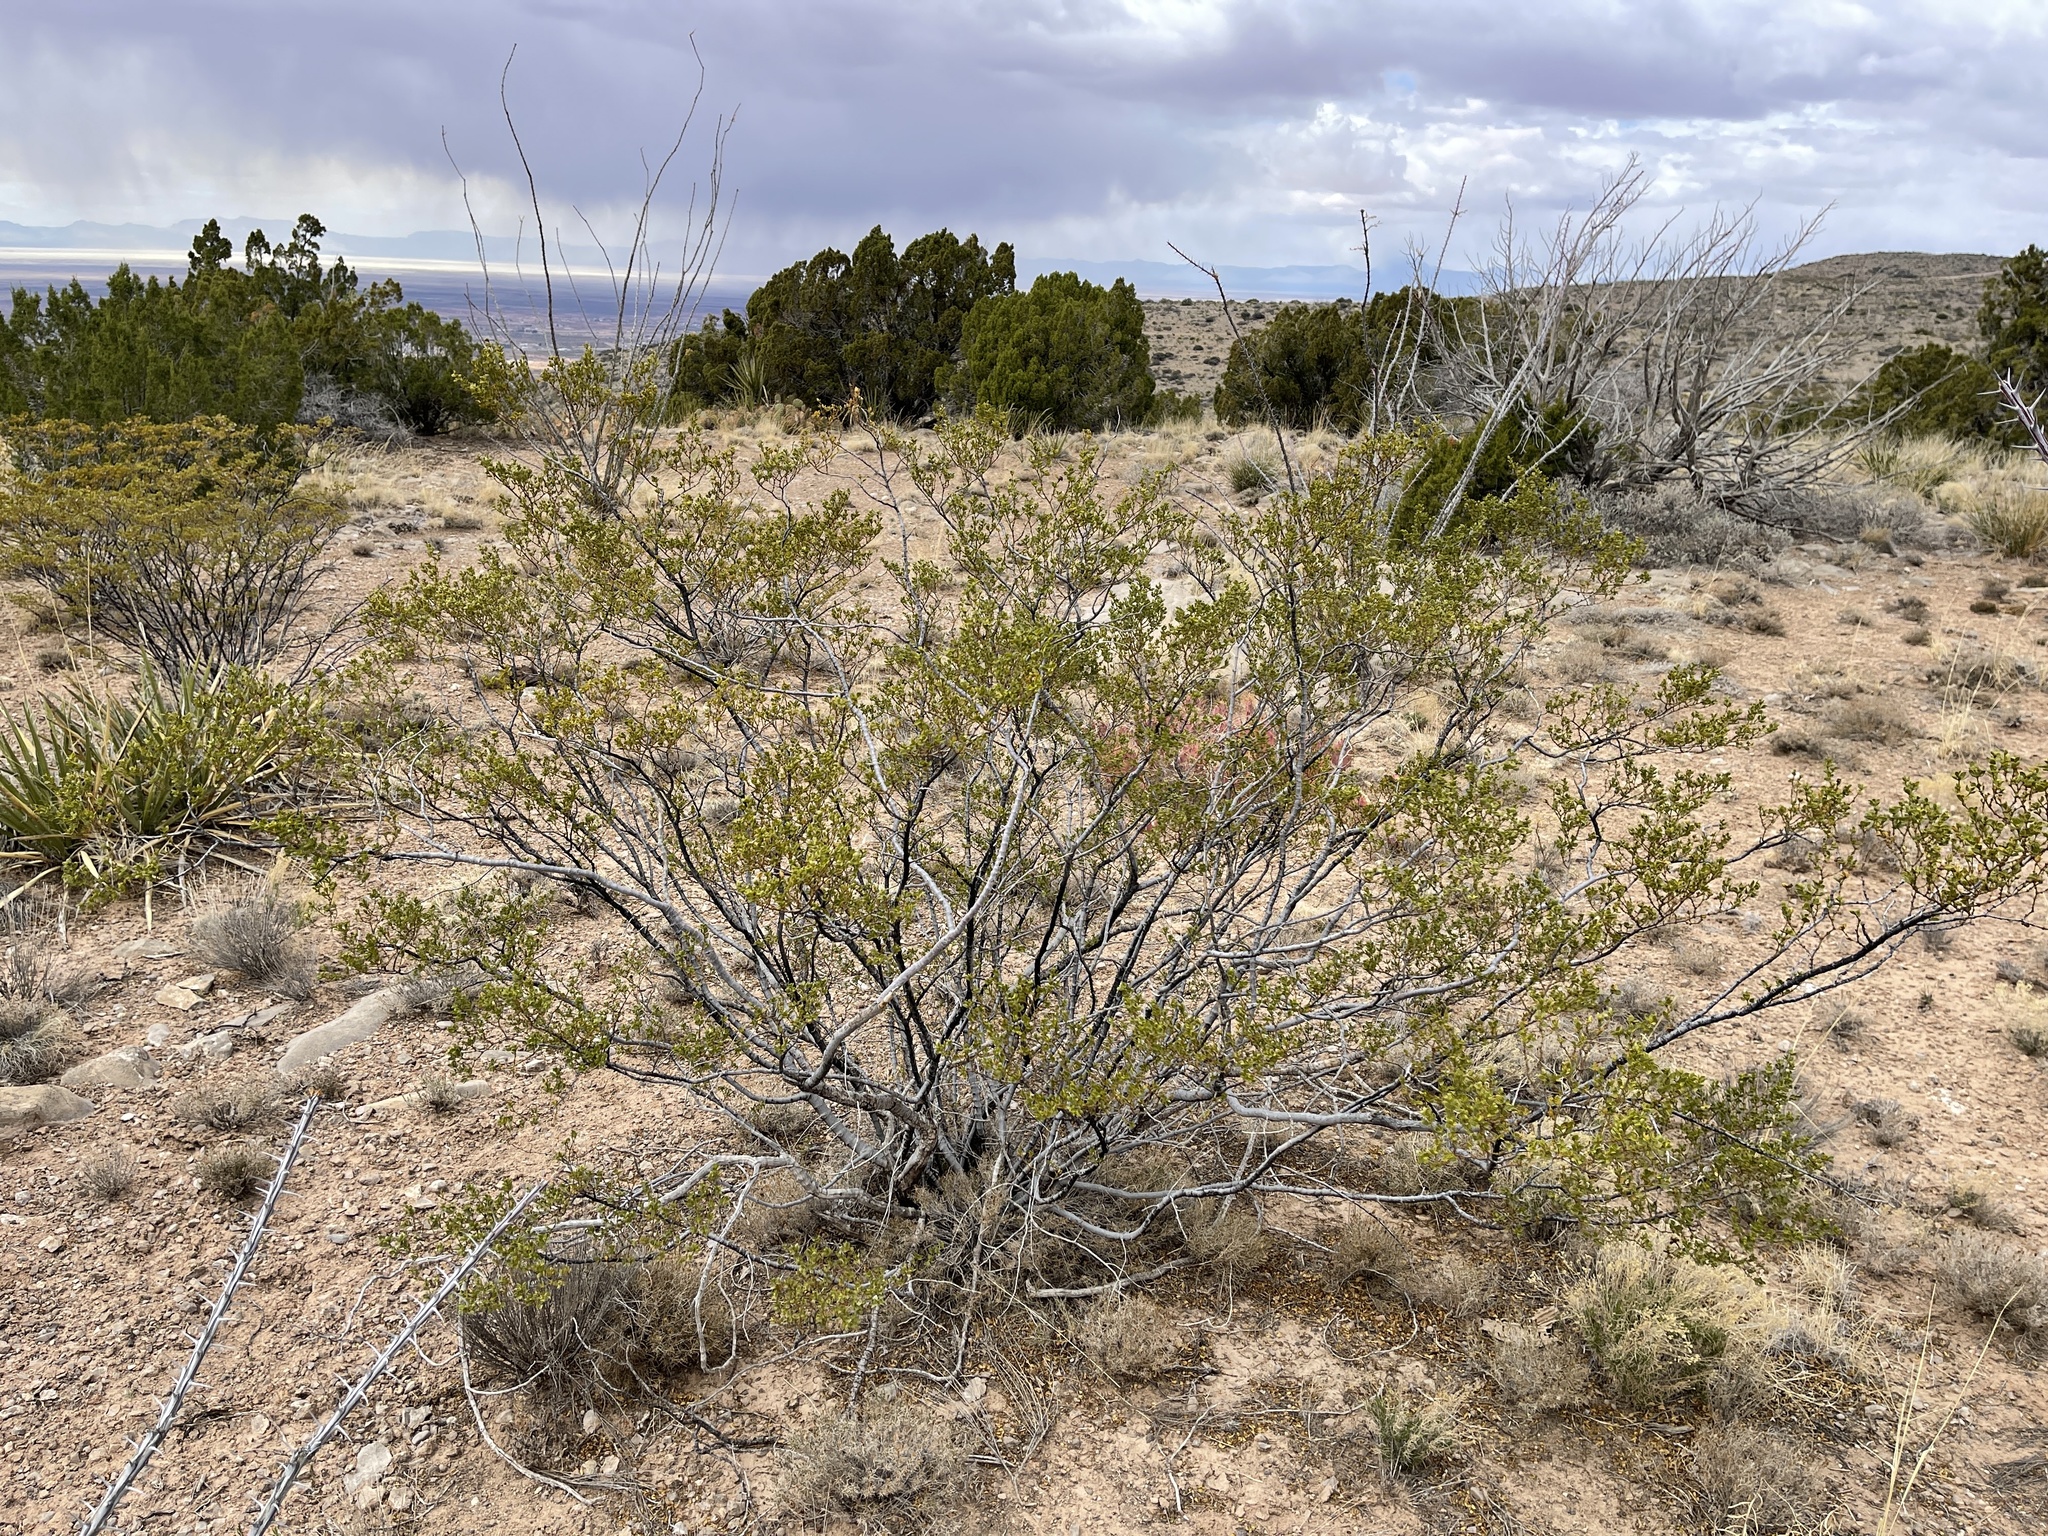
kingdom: Plantae
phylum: Tracheophyta
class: Magnoliopsida
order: Zygophyllales
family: Zygophyllaceae
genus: Larrea
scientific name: Larrea tridentata
